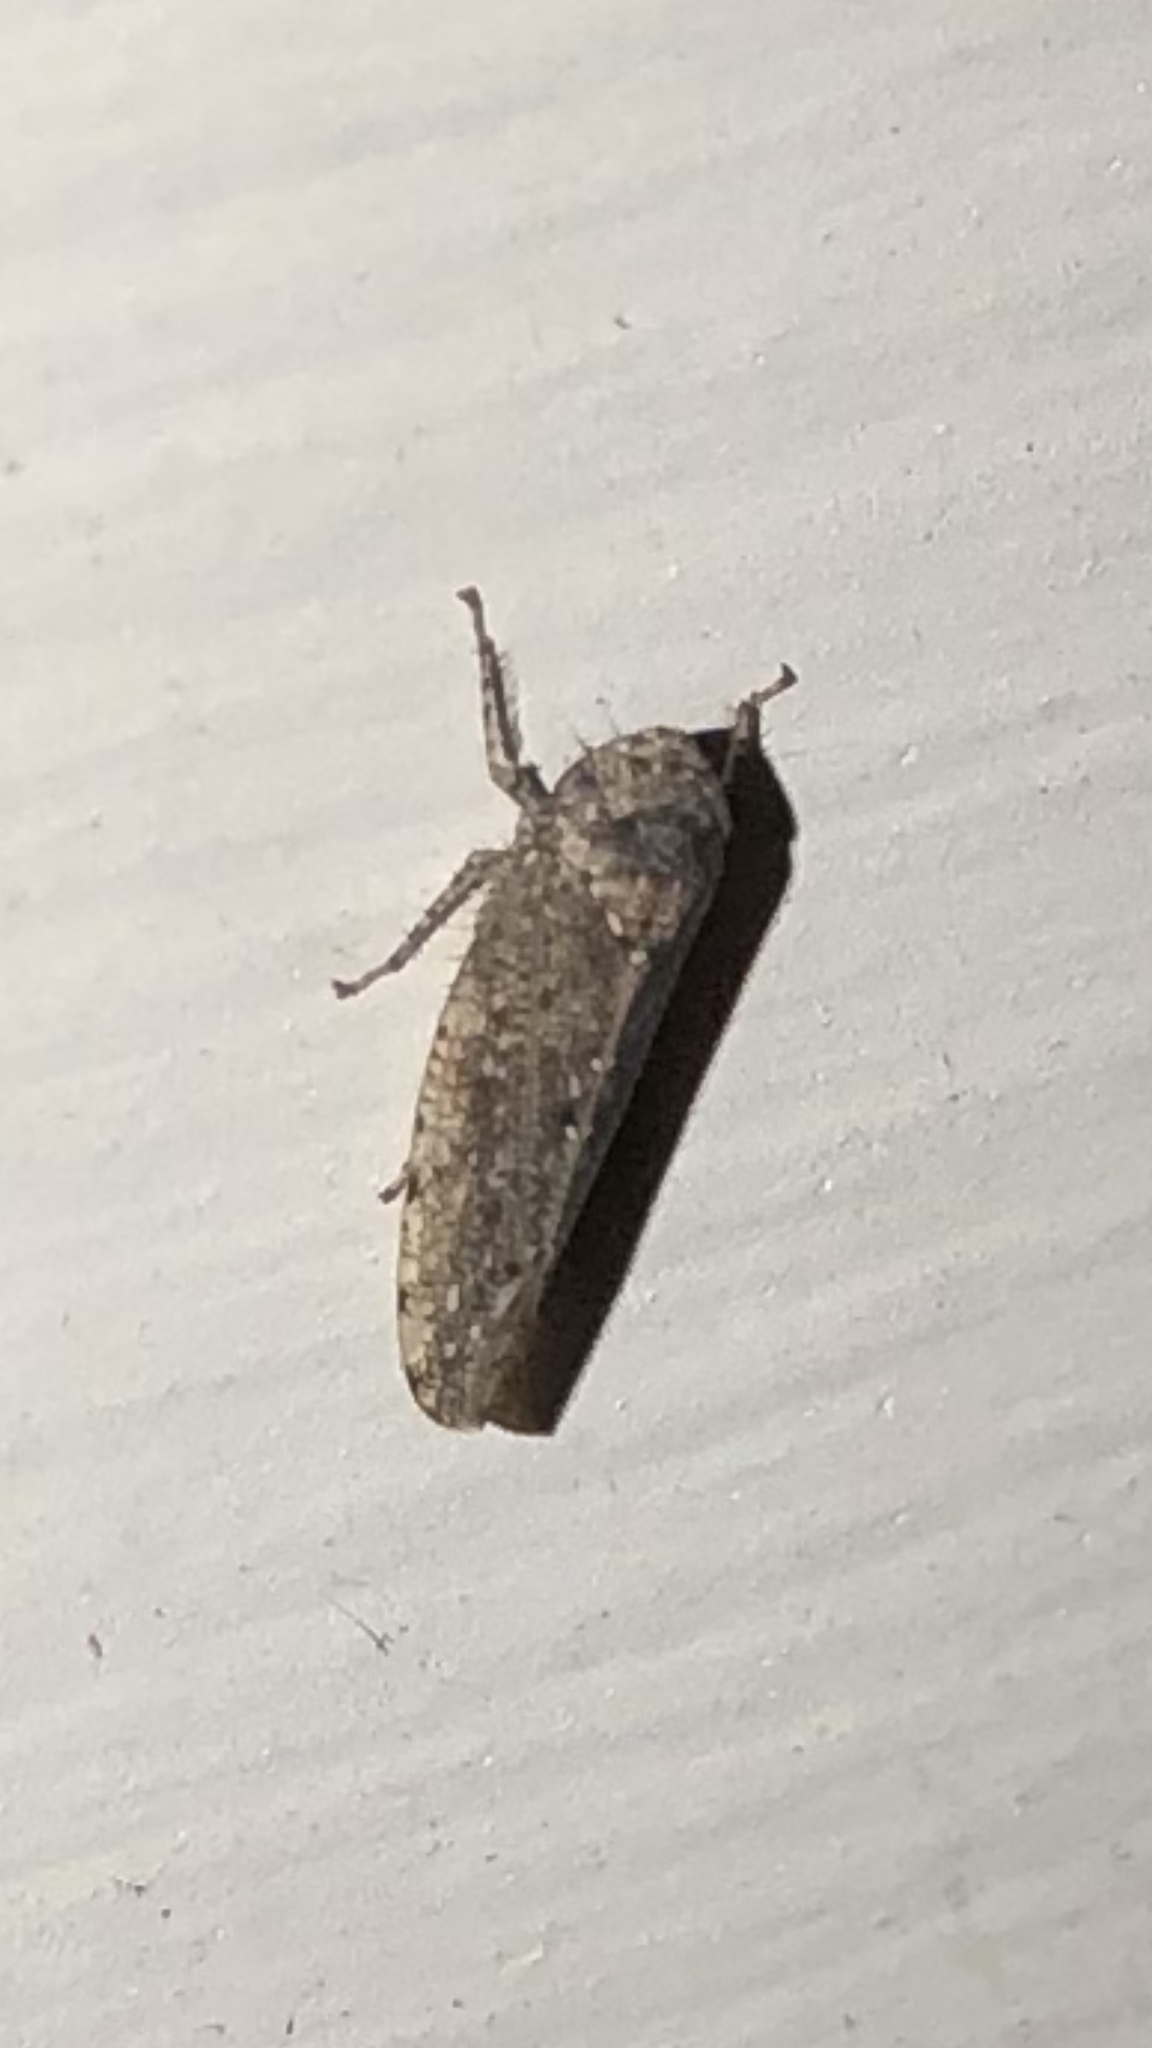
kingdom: Animalia
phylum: Arthropoda
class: Insecta
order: Hemiptera
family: Cicadellidae
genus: Paraphlepsius
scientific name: Paraphlepsius
